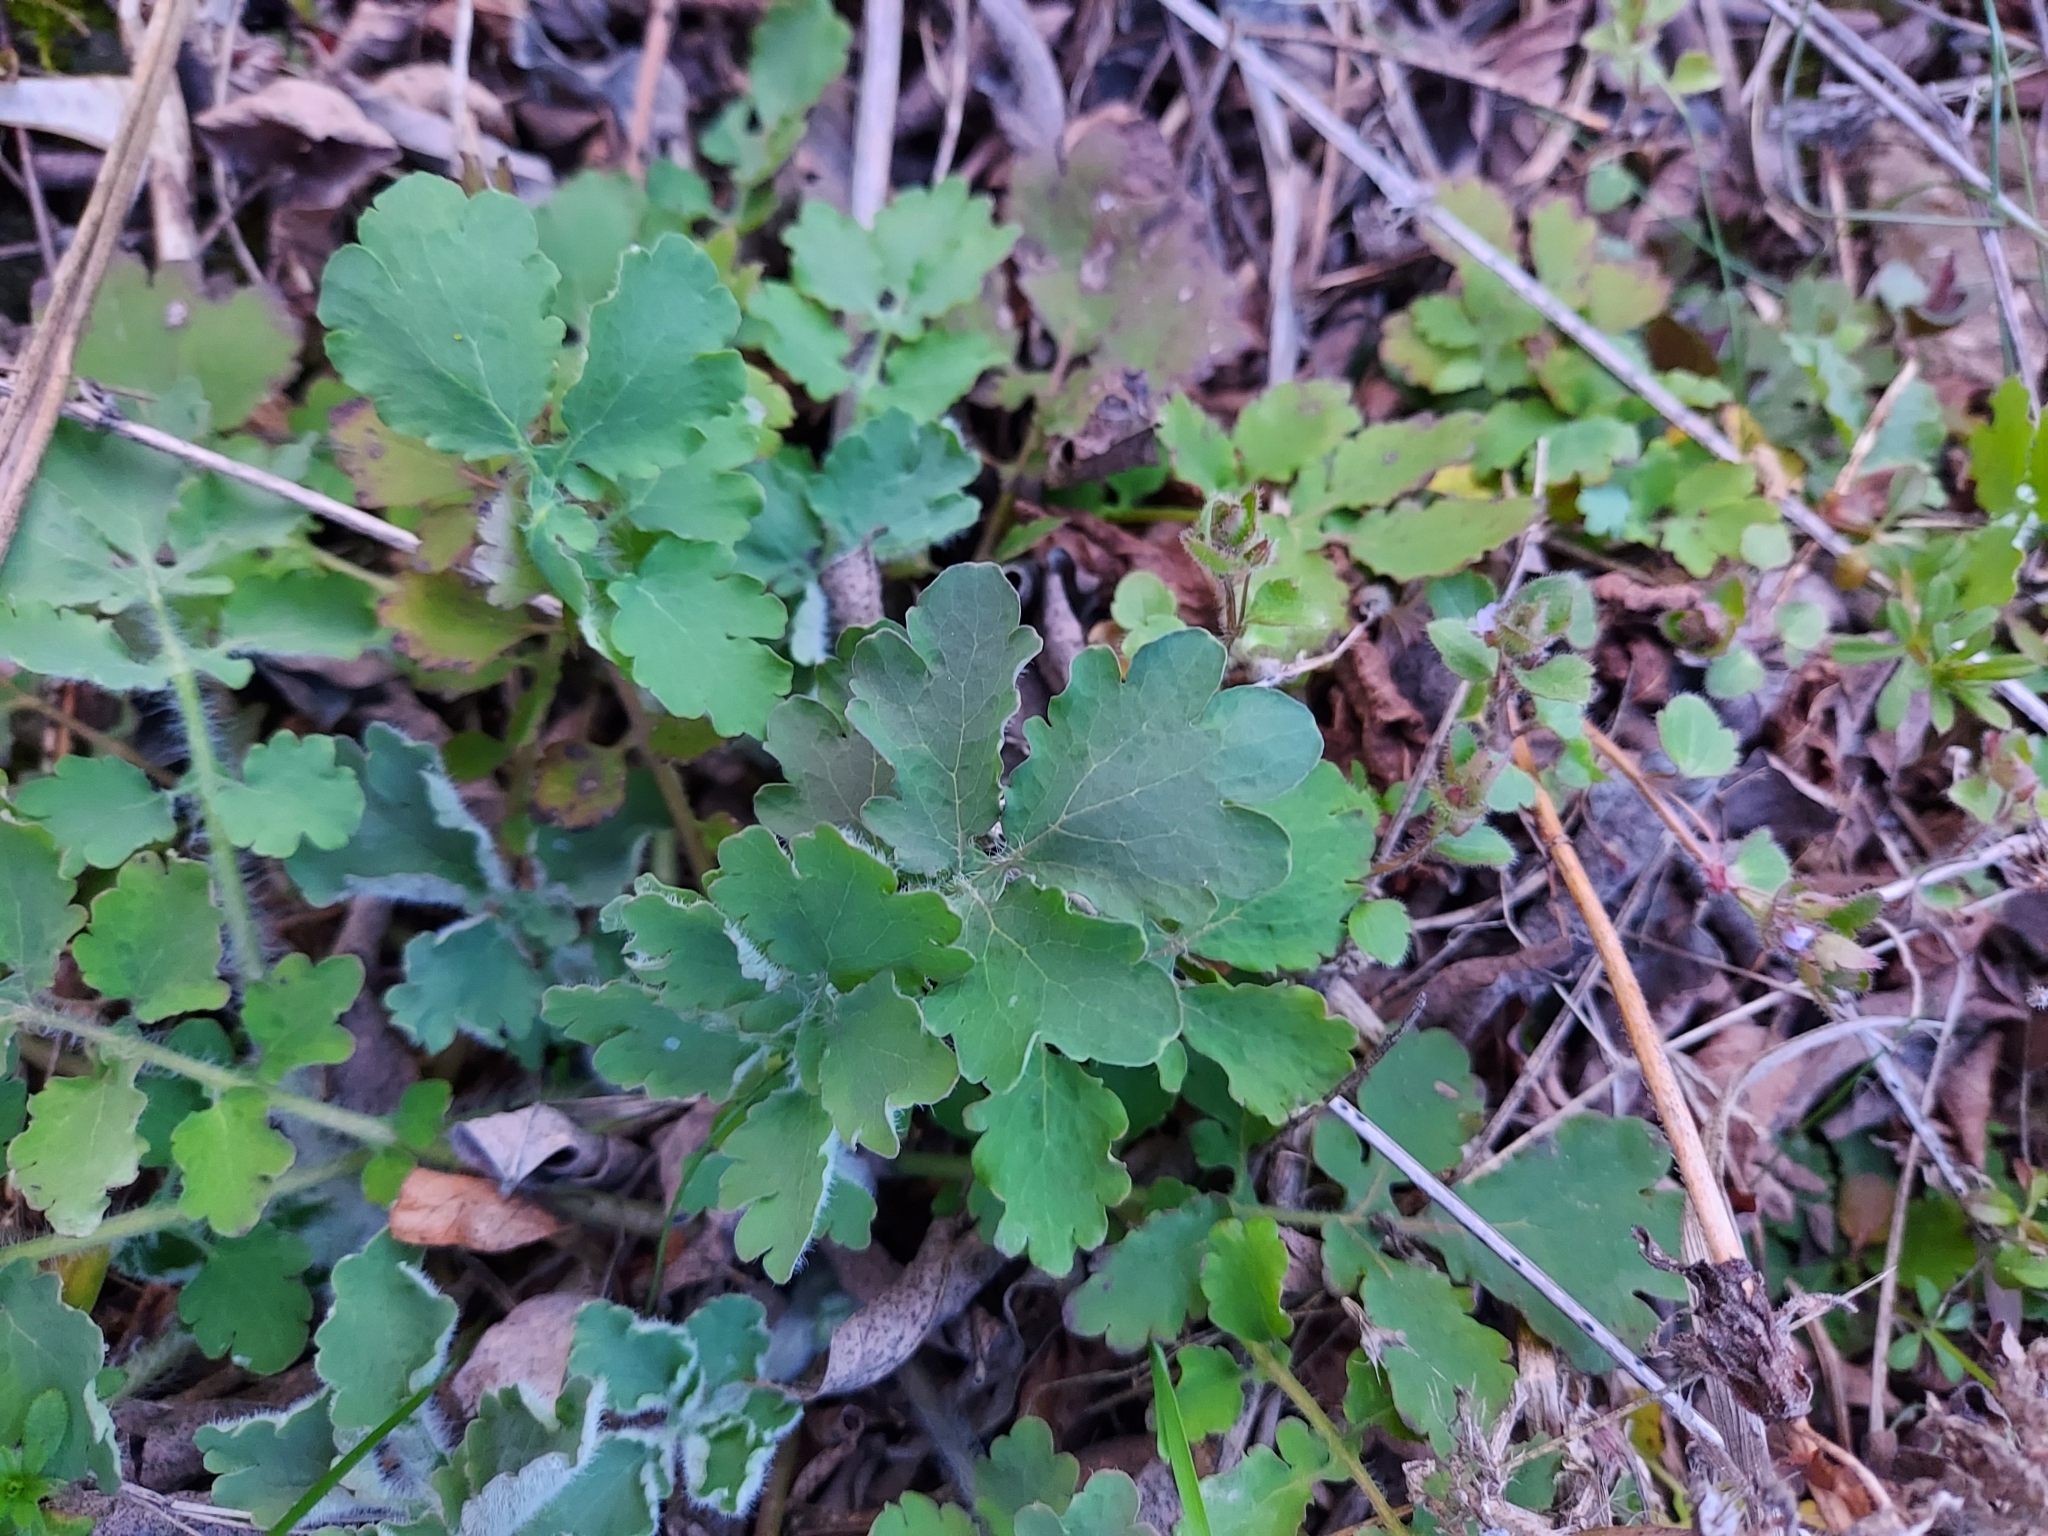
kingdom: Plantae
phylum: Tracheophyta
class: Magnoliopsida
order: Ranunculales
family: Papaveraceae
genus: Chelidonium
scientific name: Chelidonium majus
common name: Greater celandine
